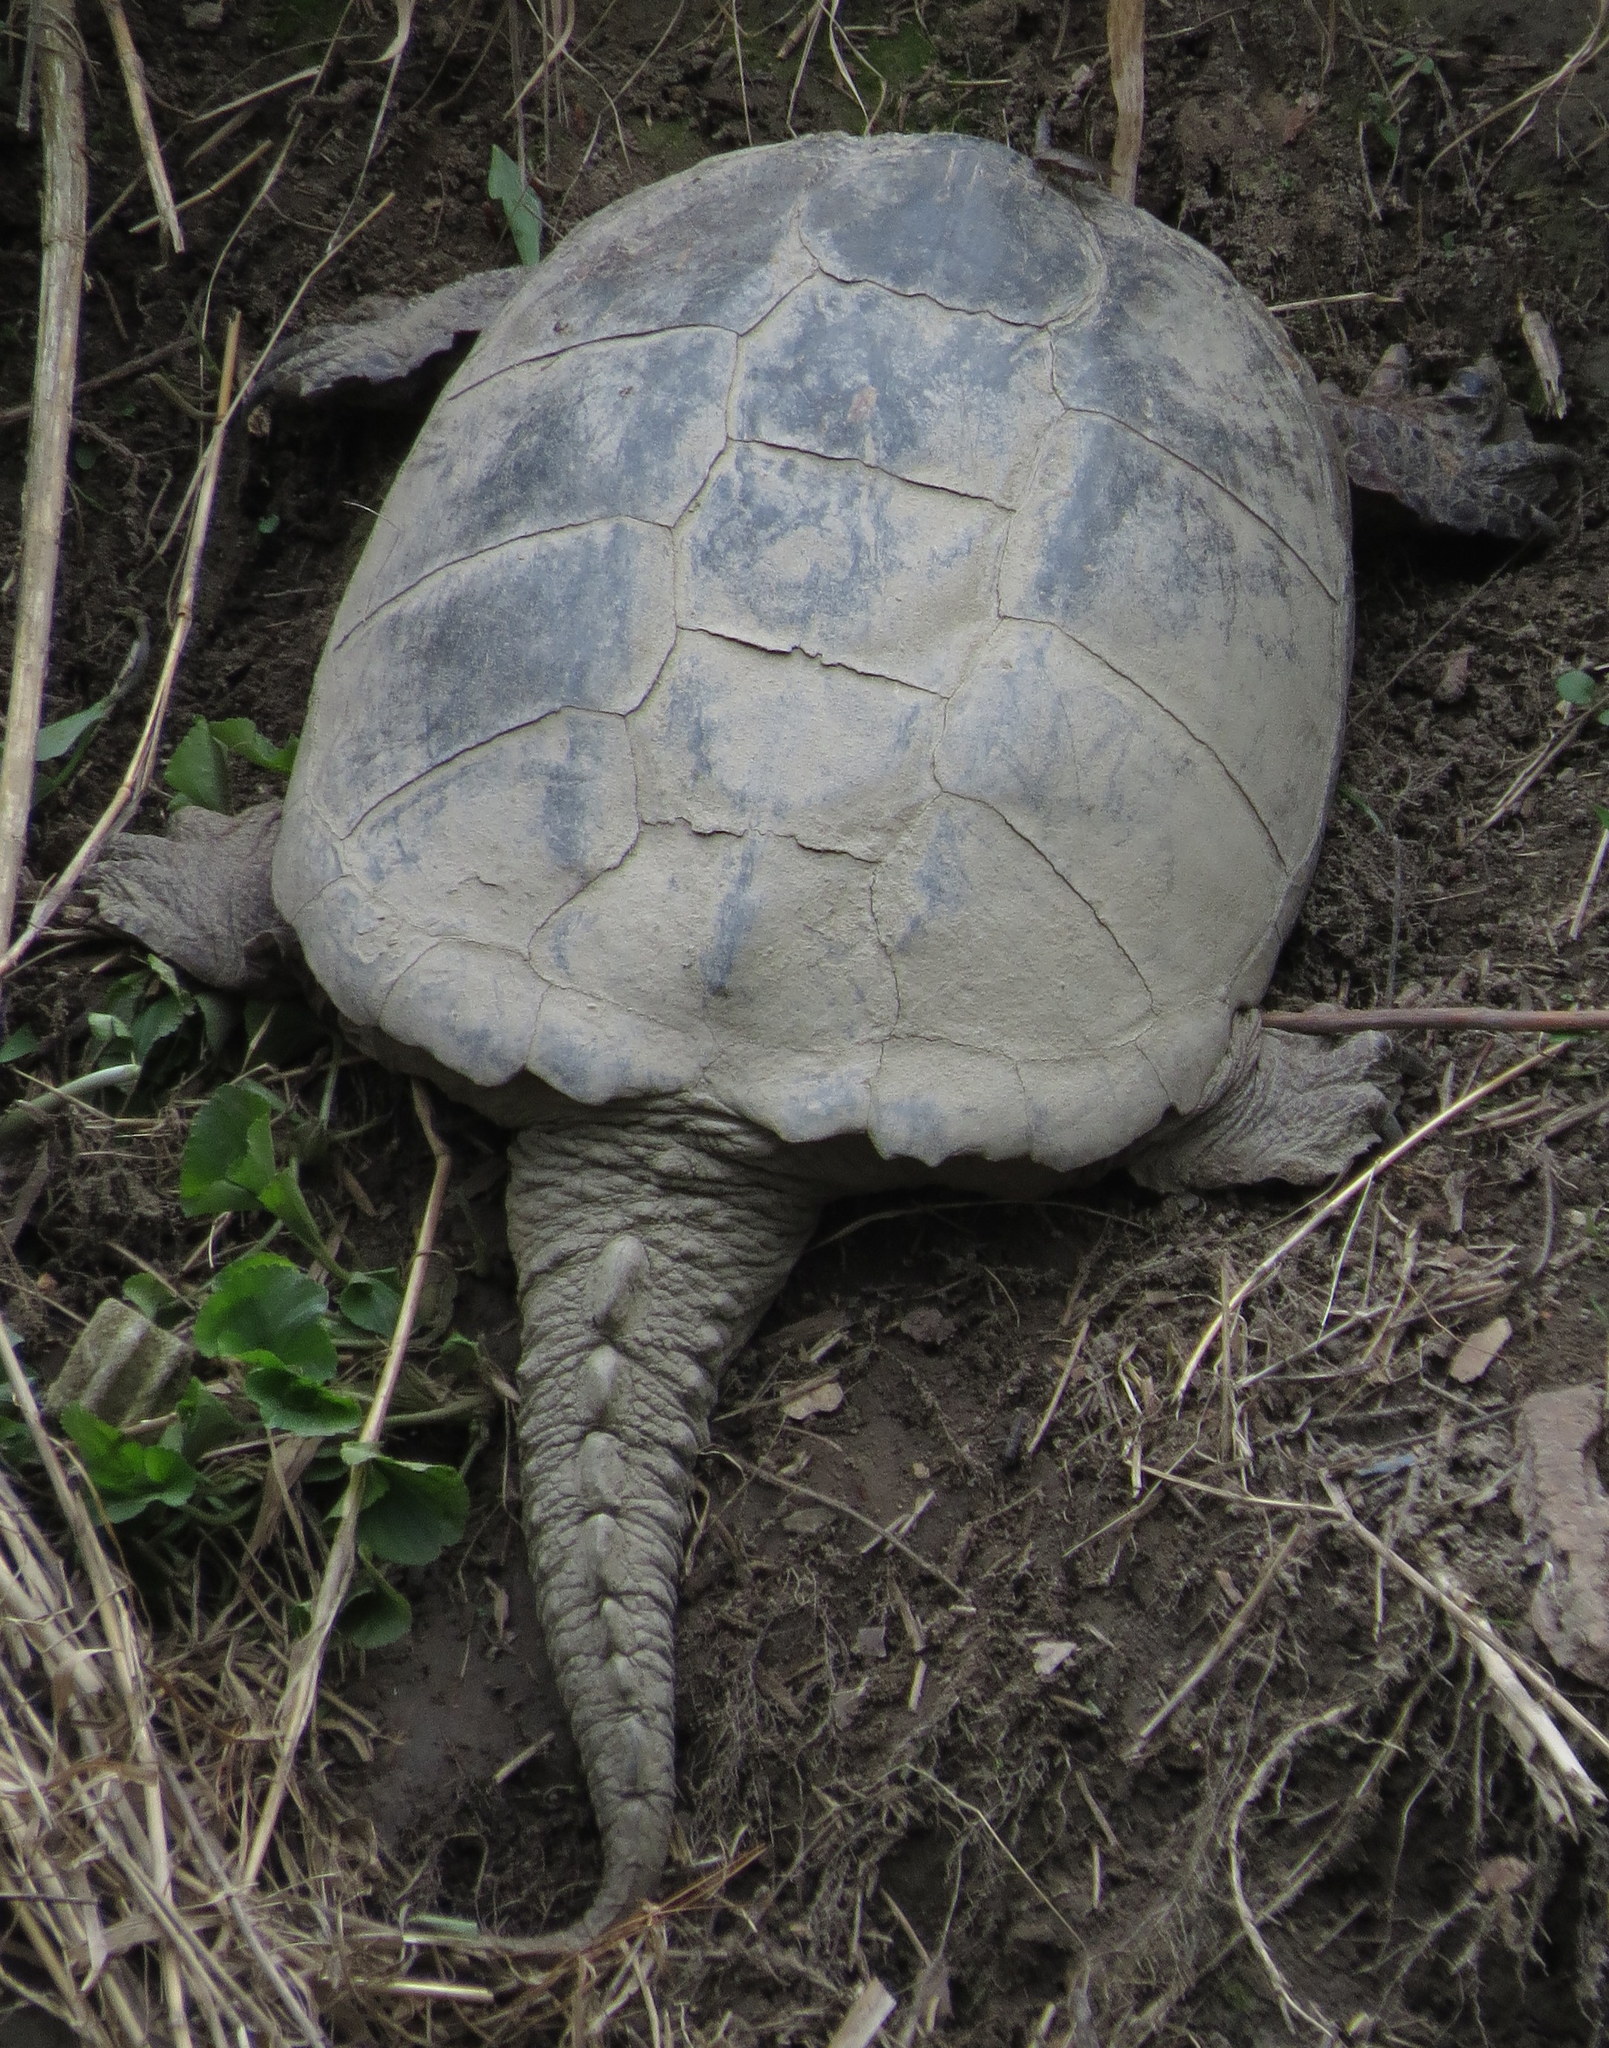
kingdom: Animalia
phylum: Chordata
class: Testudines
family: Chelydridae
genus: Chelydra
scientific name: Chelydra serpentina
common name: Common snapping turtle
